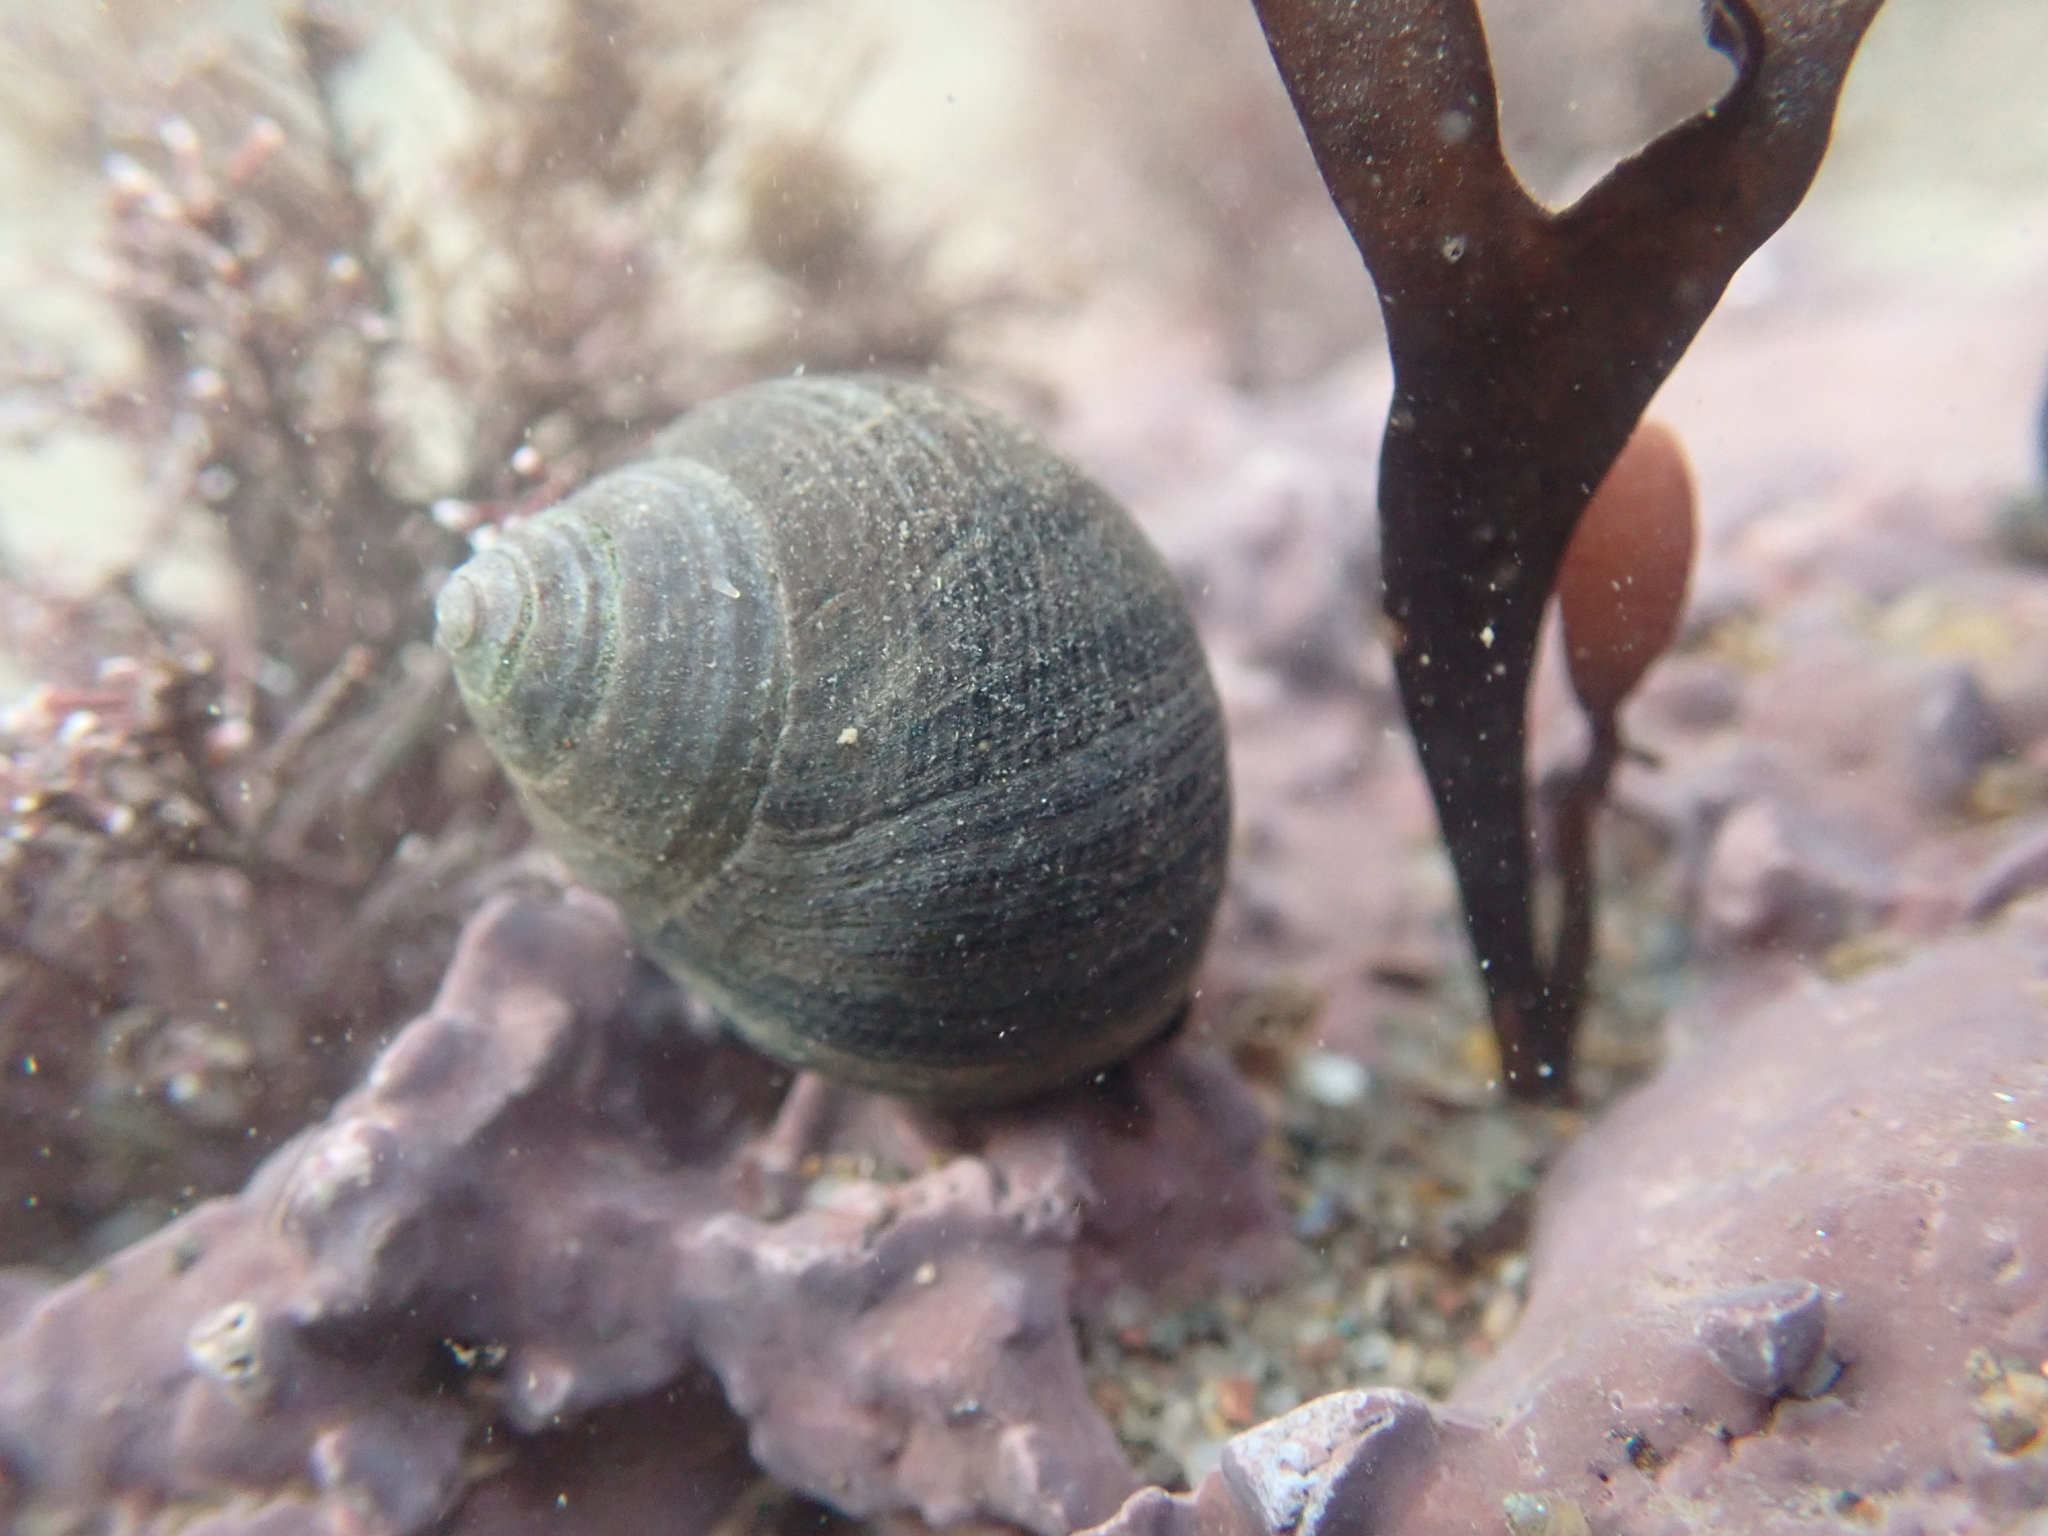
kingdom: Animalia
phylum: Mollusca
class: Gastropoda
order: Littorinimorpha
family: Littorinidae
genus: Littorina
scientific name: Littorina littorea
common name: Common periwinkle
